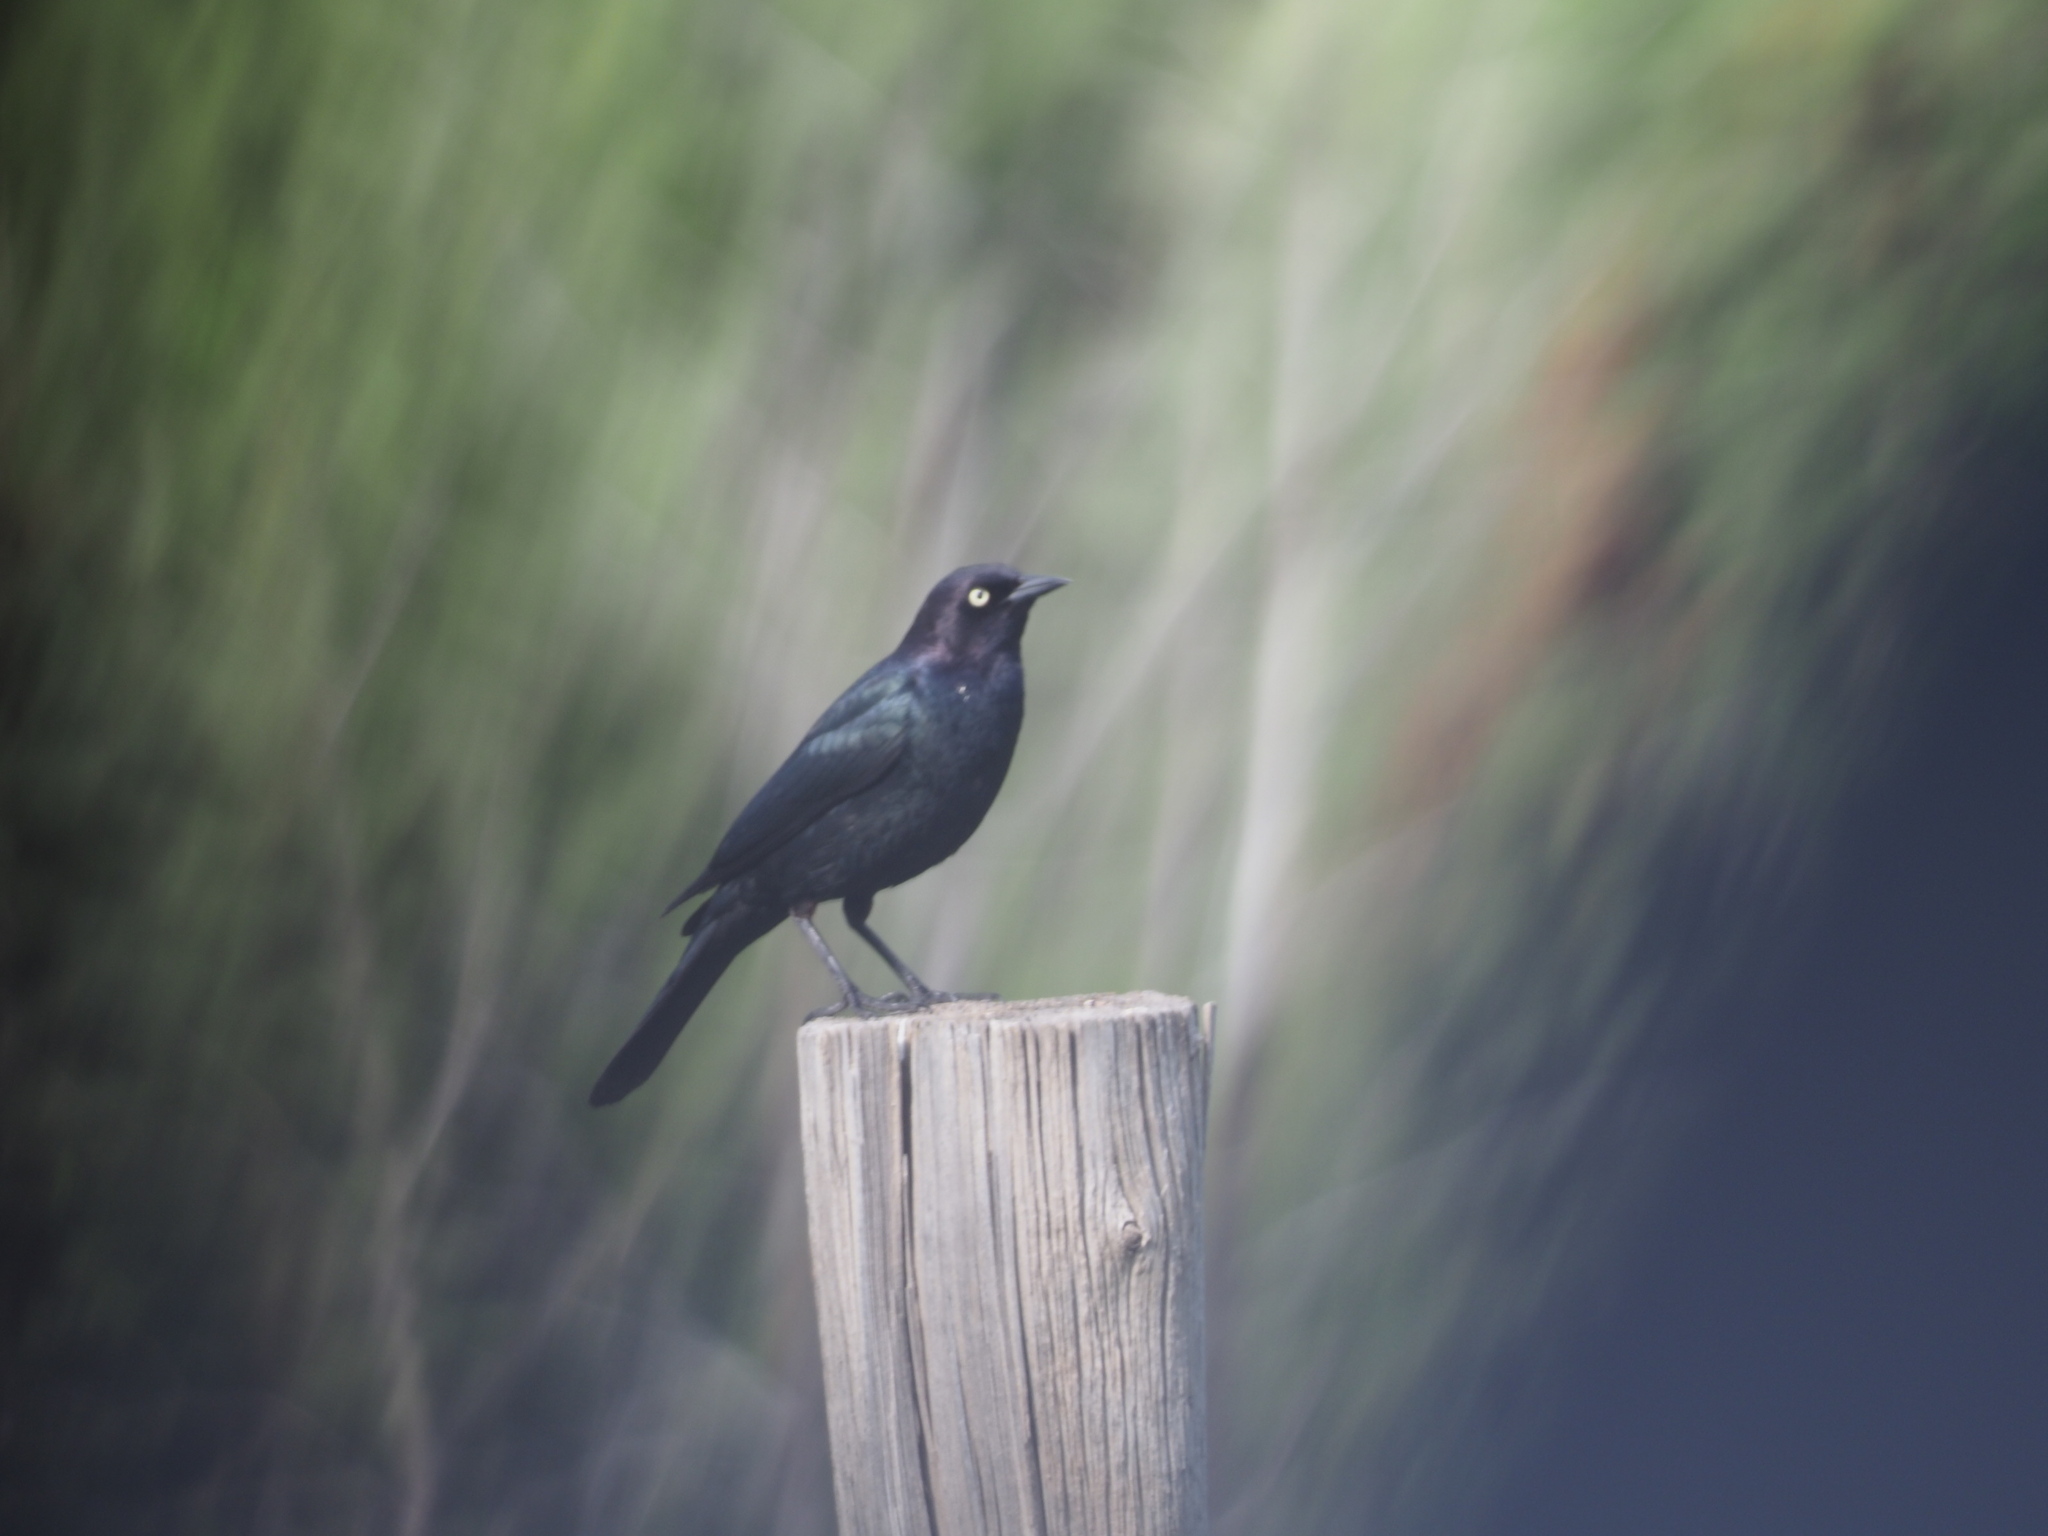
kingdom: Animalia
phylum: Chordata
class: Aves
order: Passeriformes
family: Icteridae
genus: Euphagus
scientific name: Euphagus cyanocephalus
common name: Brewer's blackbird
